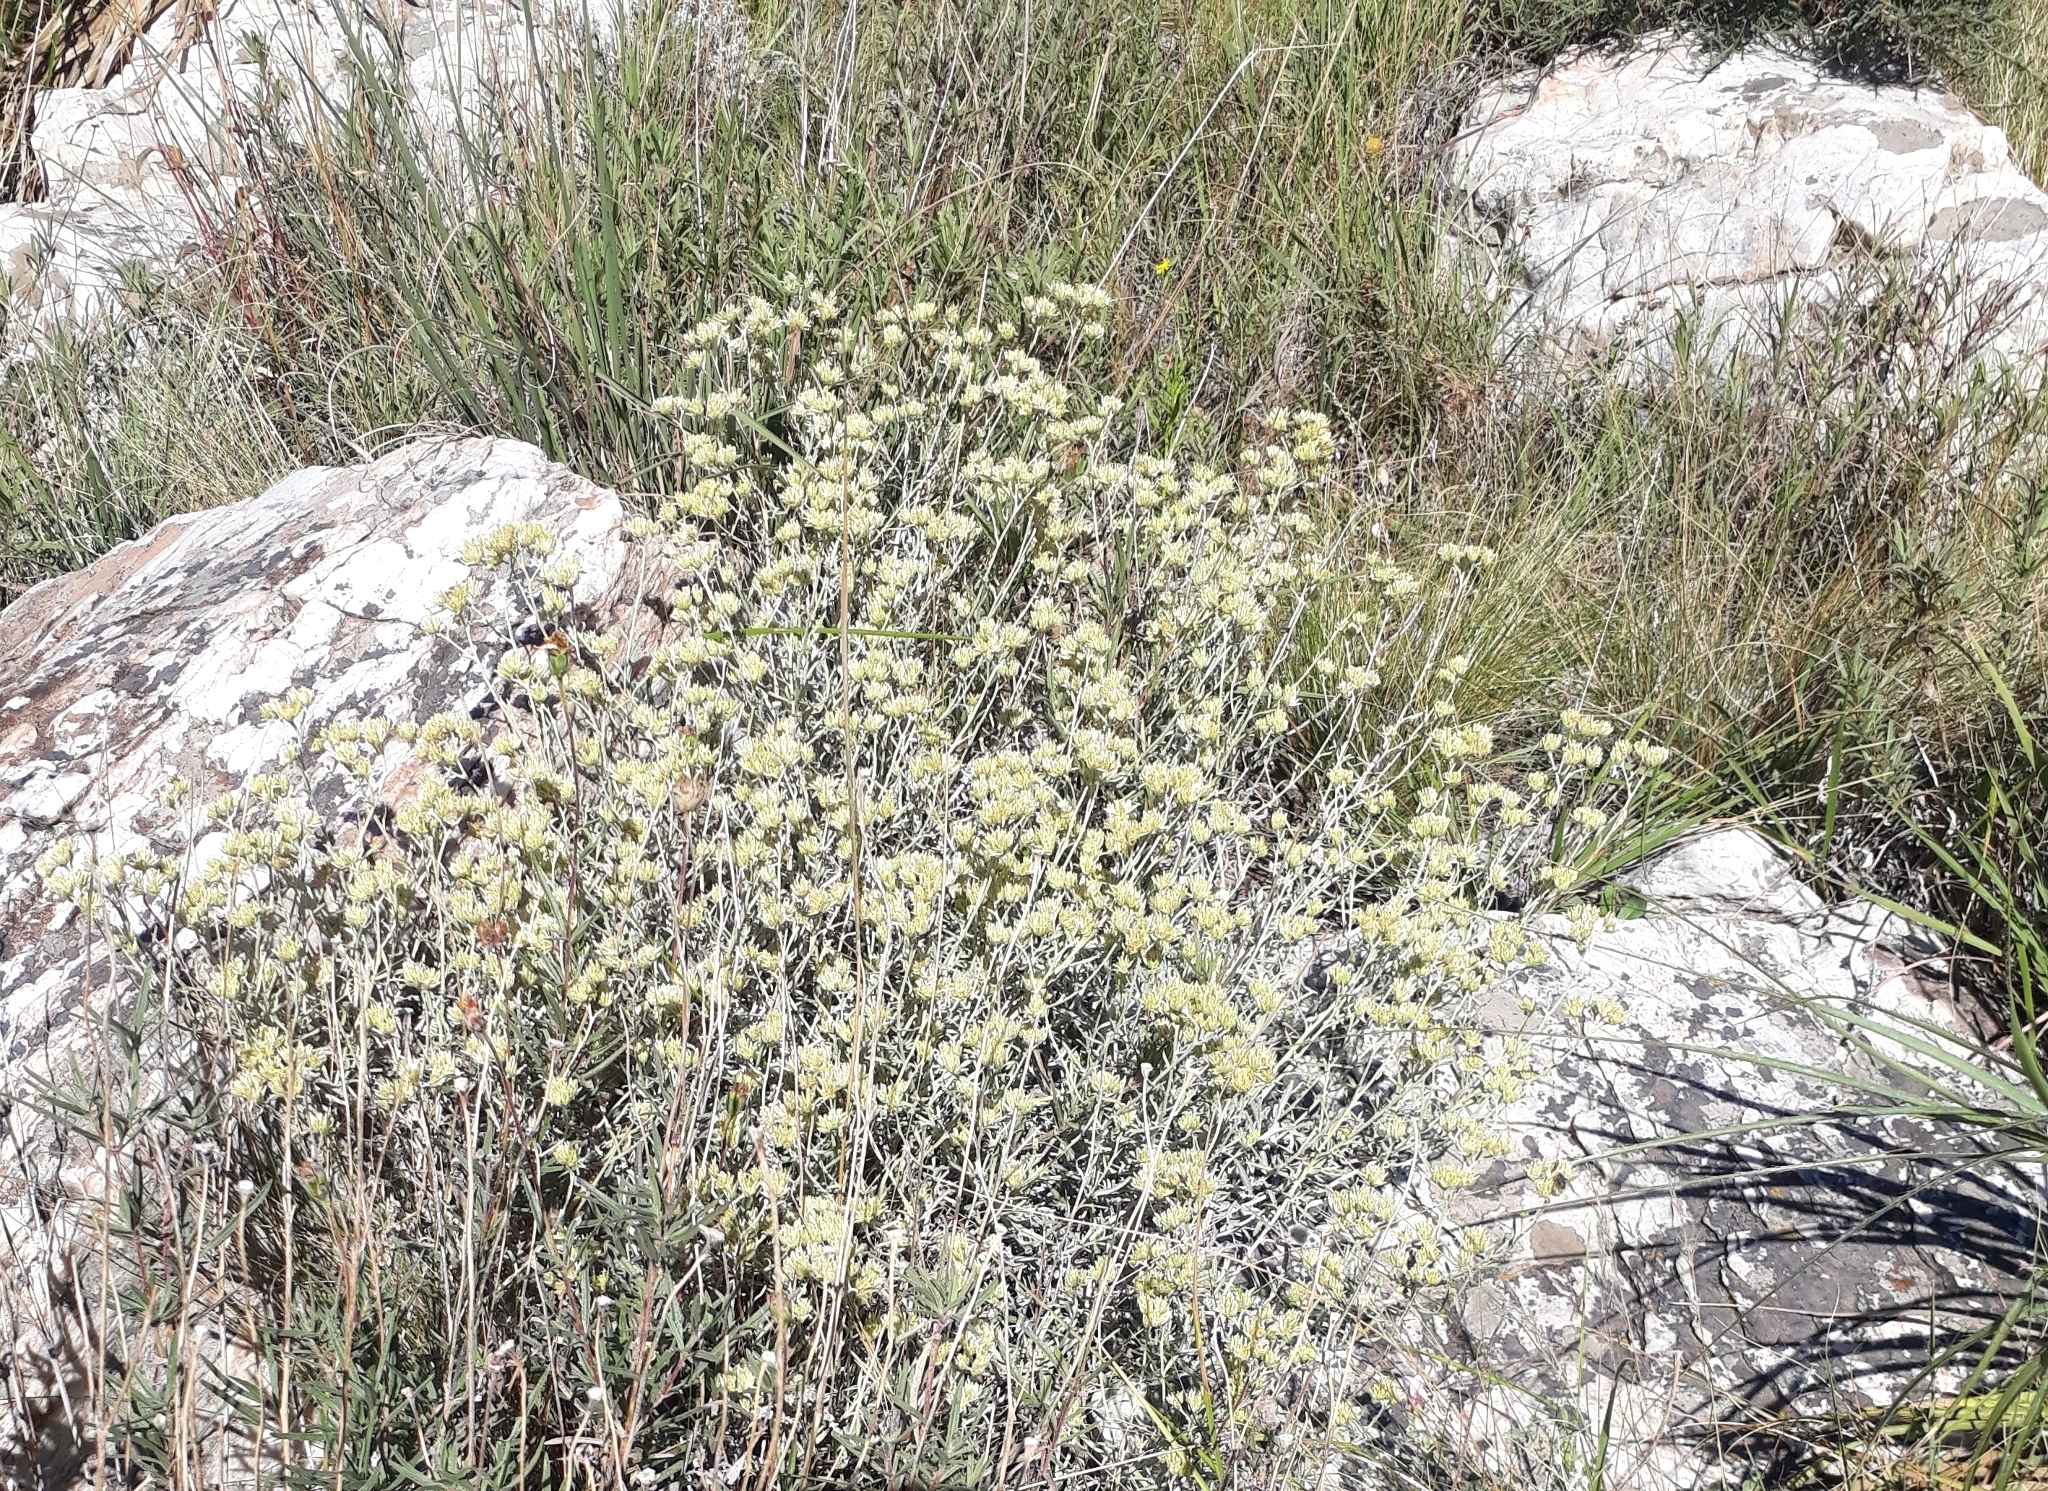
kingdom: Plantae
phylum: Tracheophyta
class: Magnoliopsida
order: Asterales
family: Asteraceae
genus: Achyrocline
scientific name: Achyrocline satureioides
